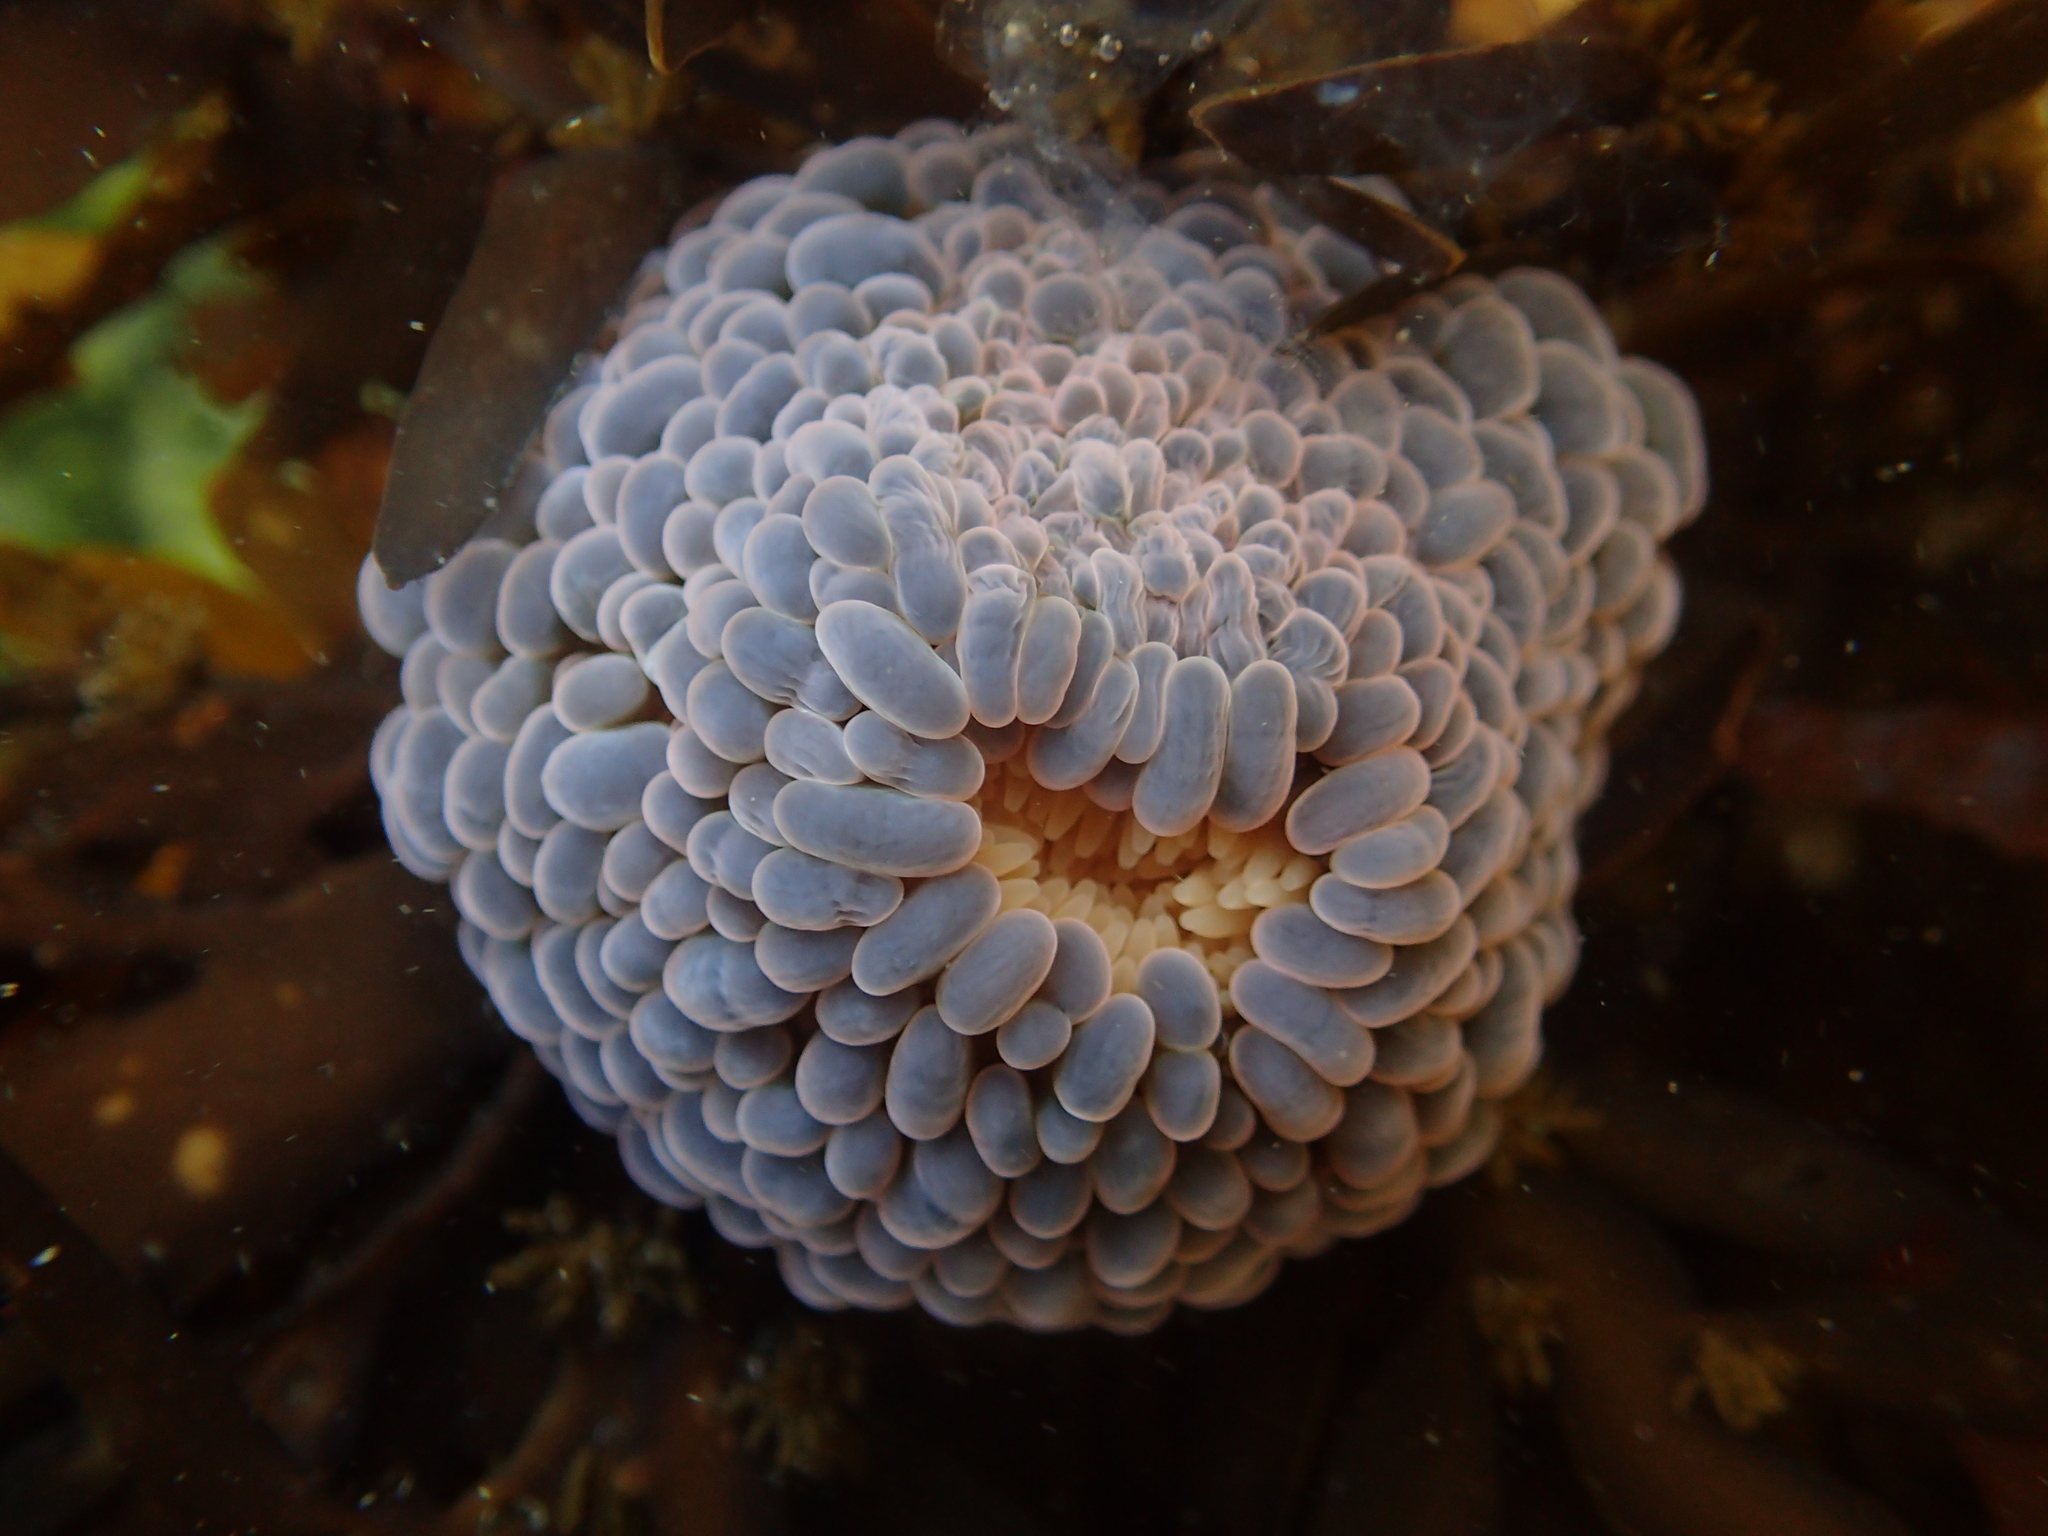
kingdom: Animalia
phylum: Cnidaria
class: Anthozoa
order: Actiniaria
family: Actiniidae
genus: Phlyctenactis
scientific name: Phlyctenactis tuberculosa
